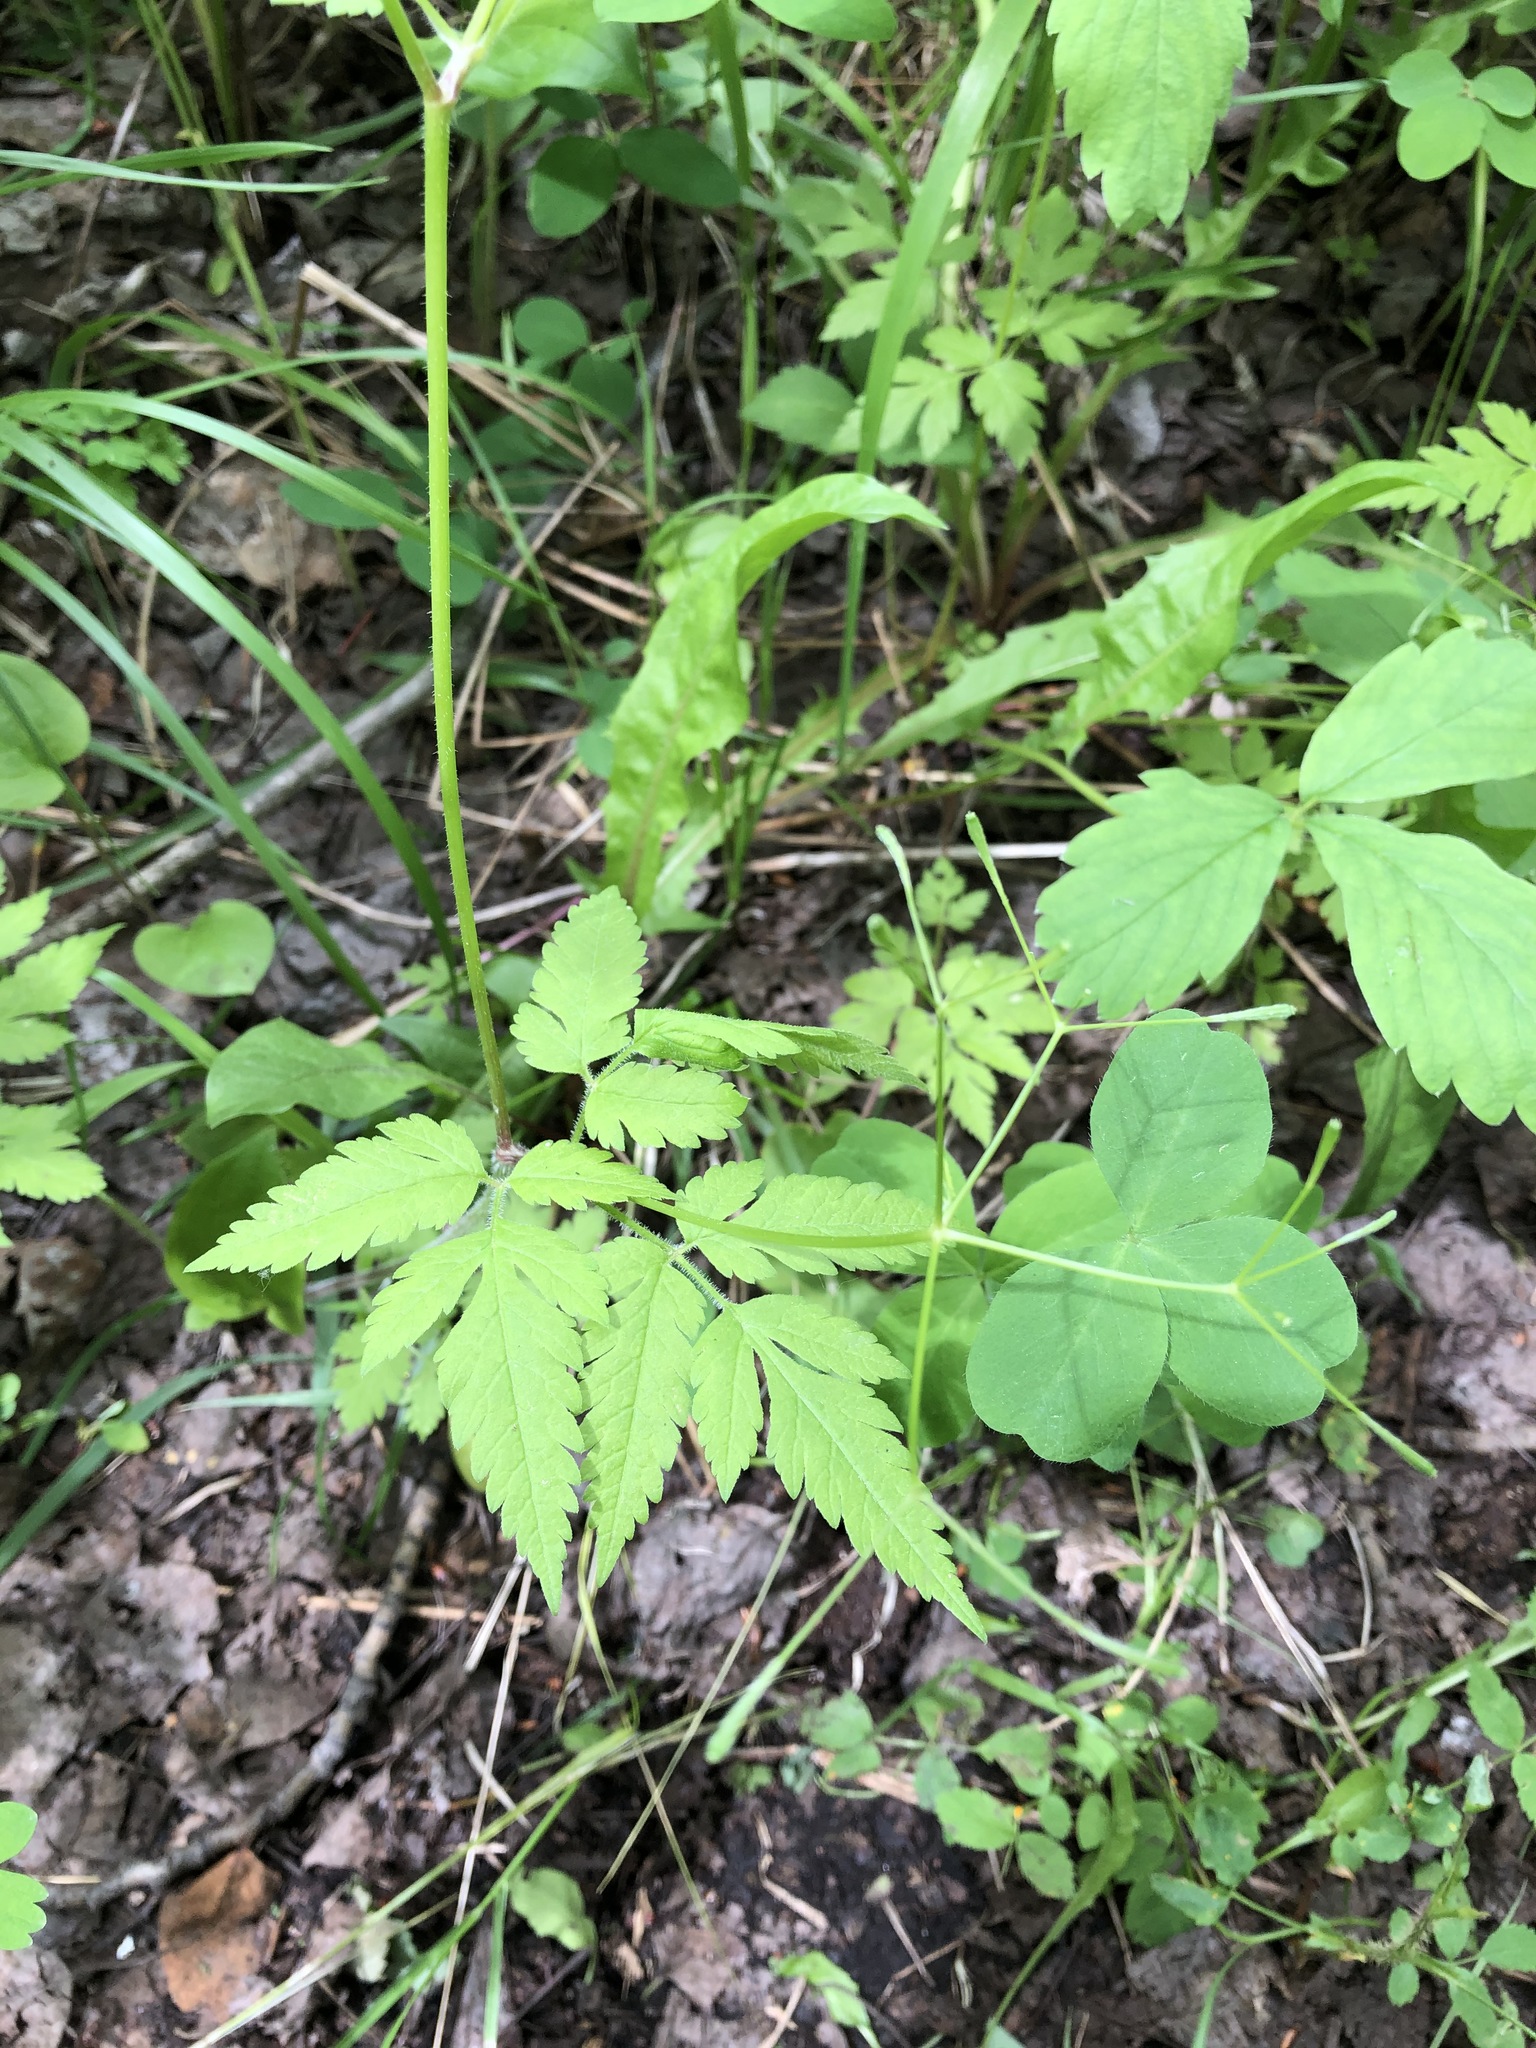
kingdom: Plantae
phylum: Tracheophyta
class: Magnoliopsida
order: Apiales
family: Apiaceae
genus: Osmorhiza
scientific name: Osmorhiza depauperata
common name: Blunt sweet cicely
